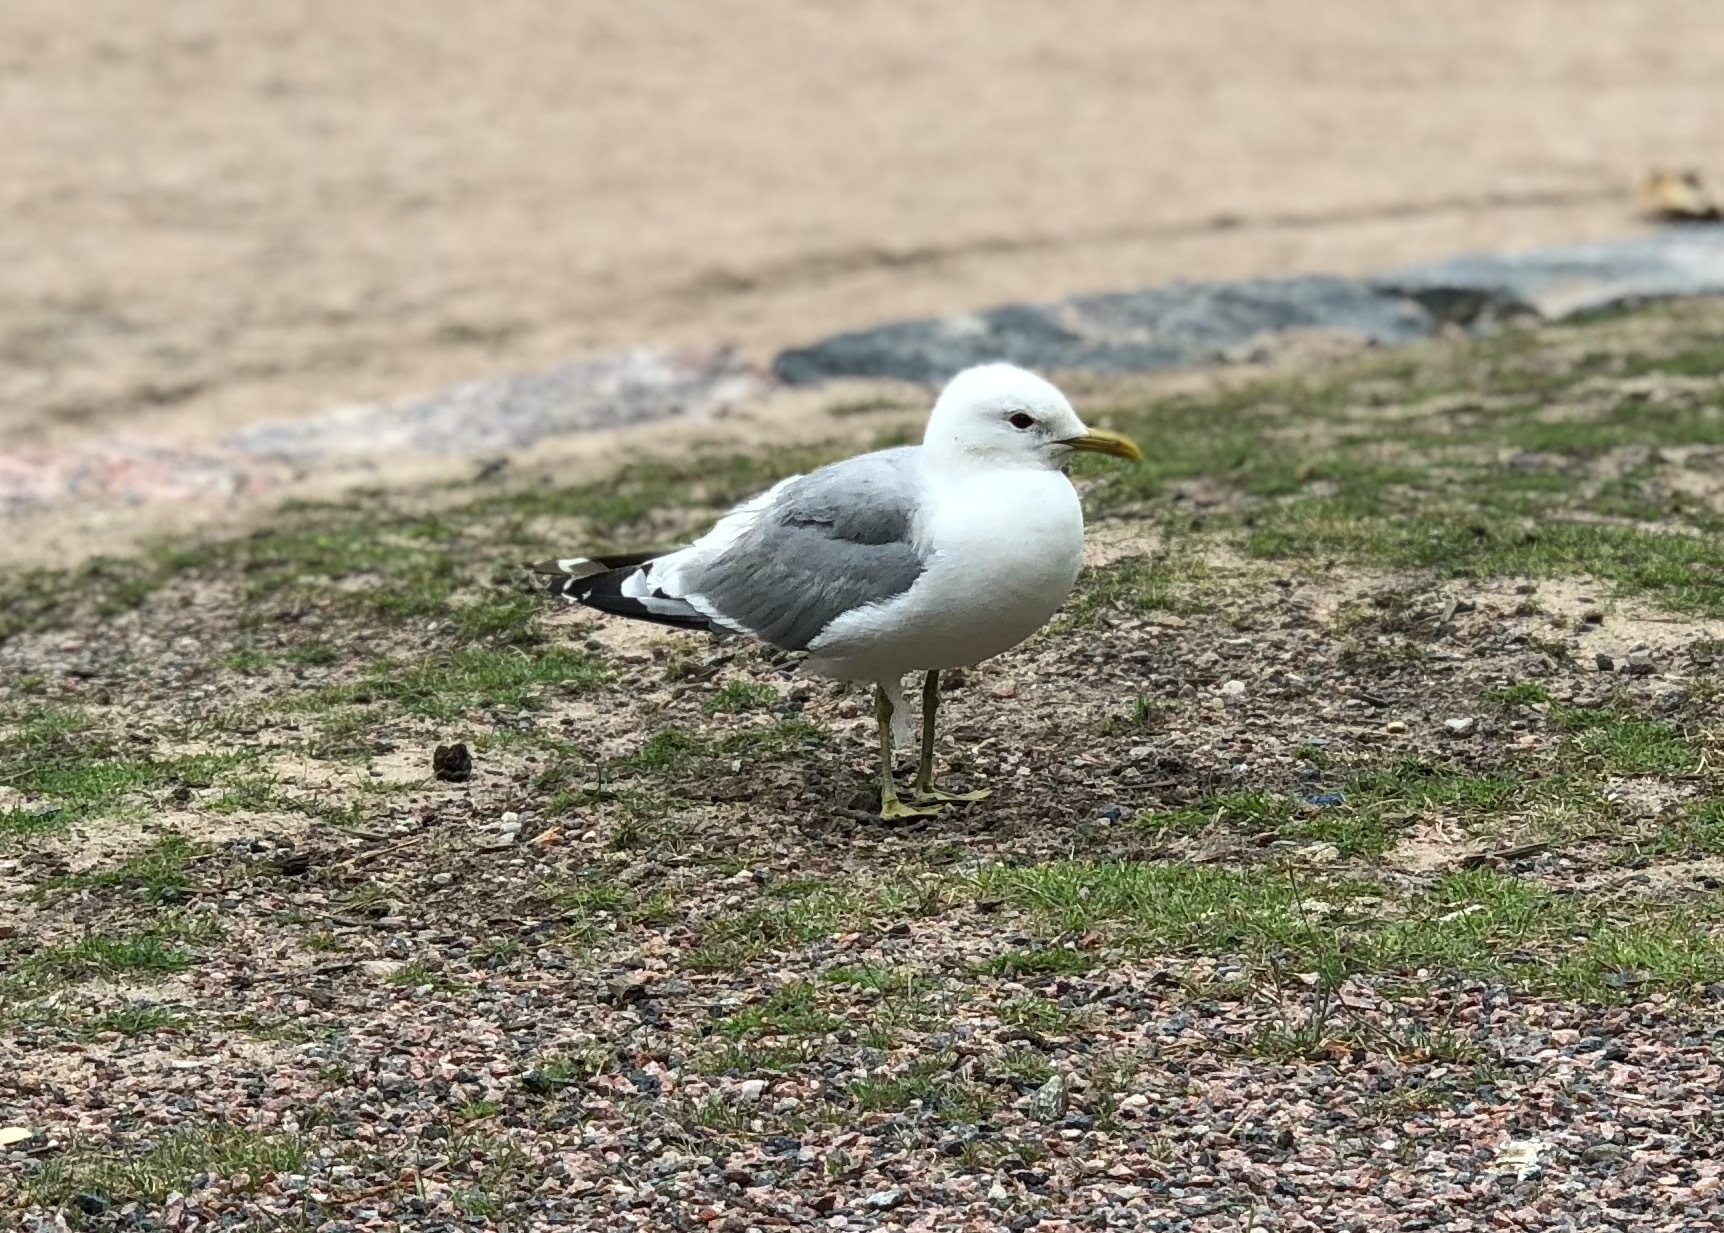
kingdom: Animalia
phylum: Chordata
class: Aves
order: Charadriiformes
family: Laridae
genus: Larus
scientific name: Larus canus
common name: Mew gull
